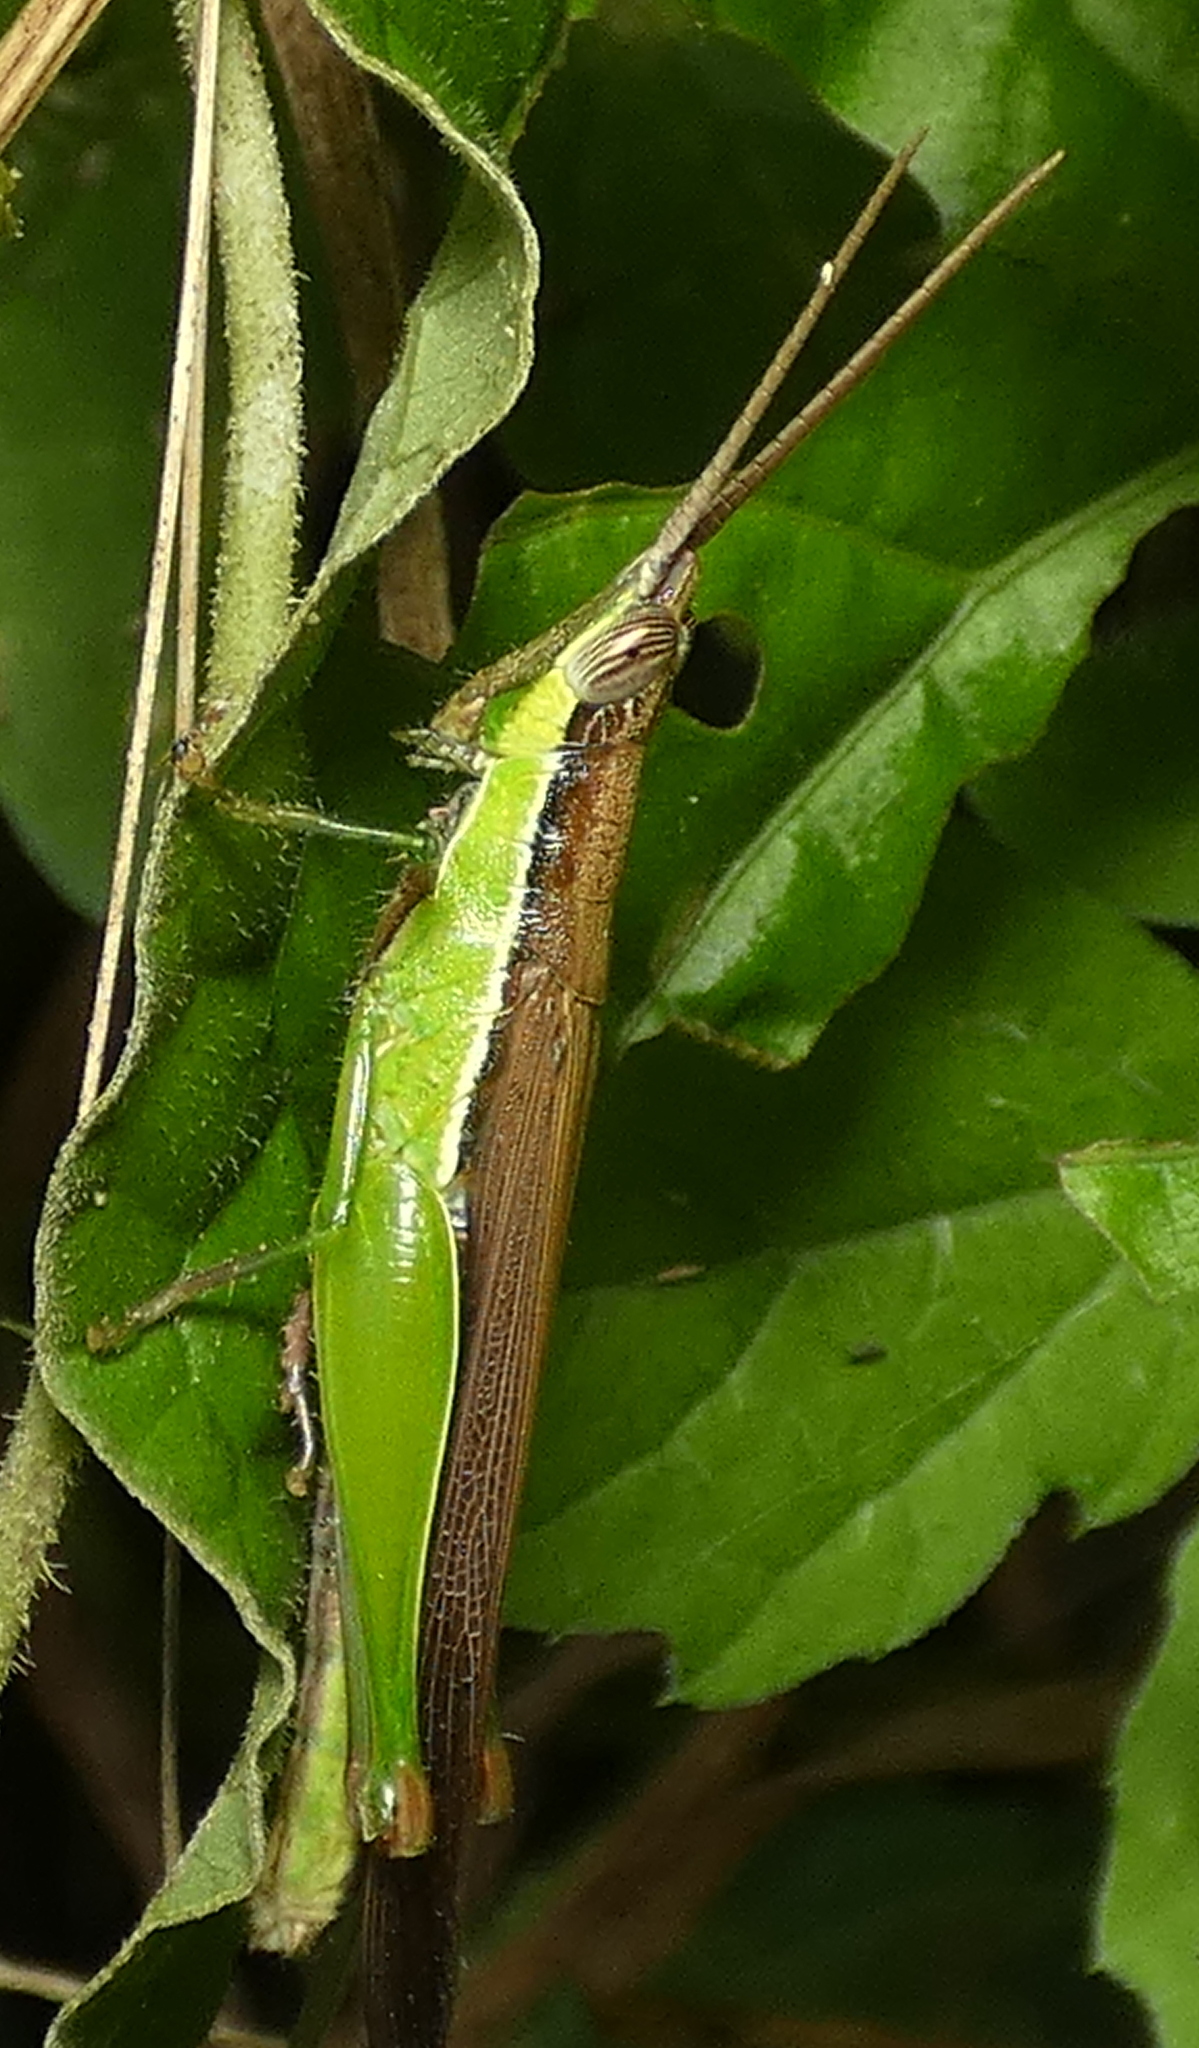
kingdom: Animalia
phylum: Arthropoda
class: Insecta
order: Orthoptera
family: Acrididae
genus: Stenopola
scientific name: Stenopola dorsalis
